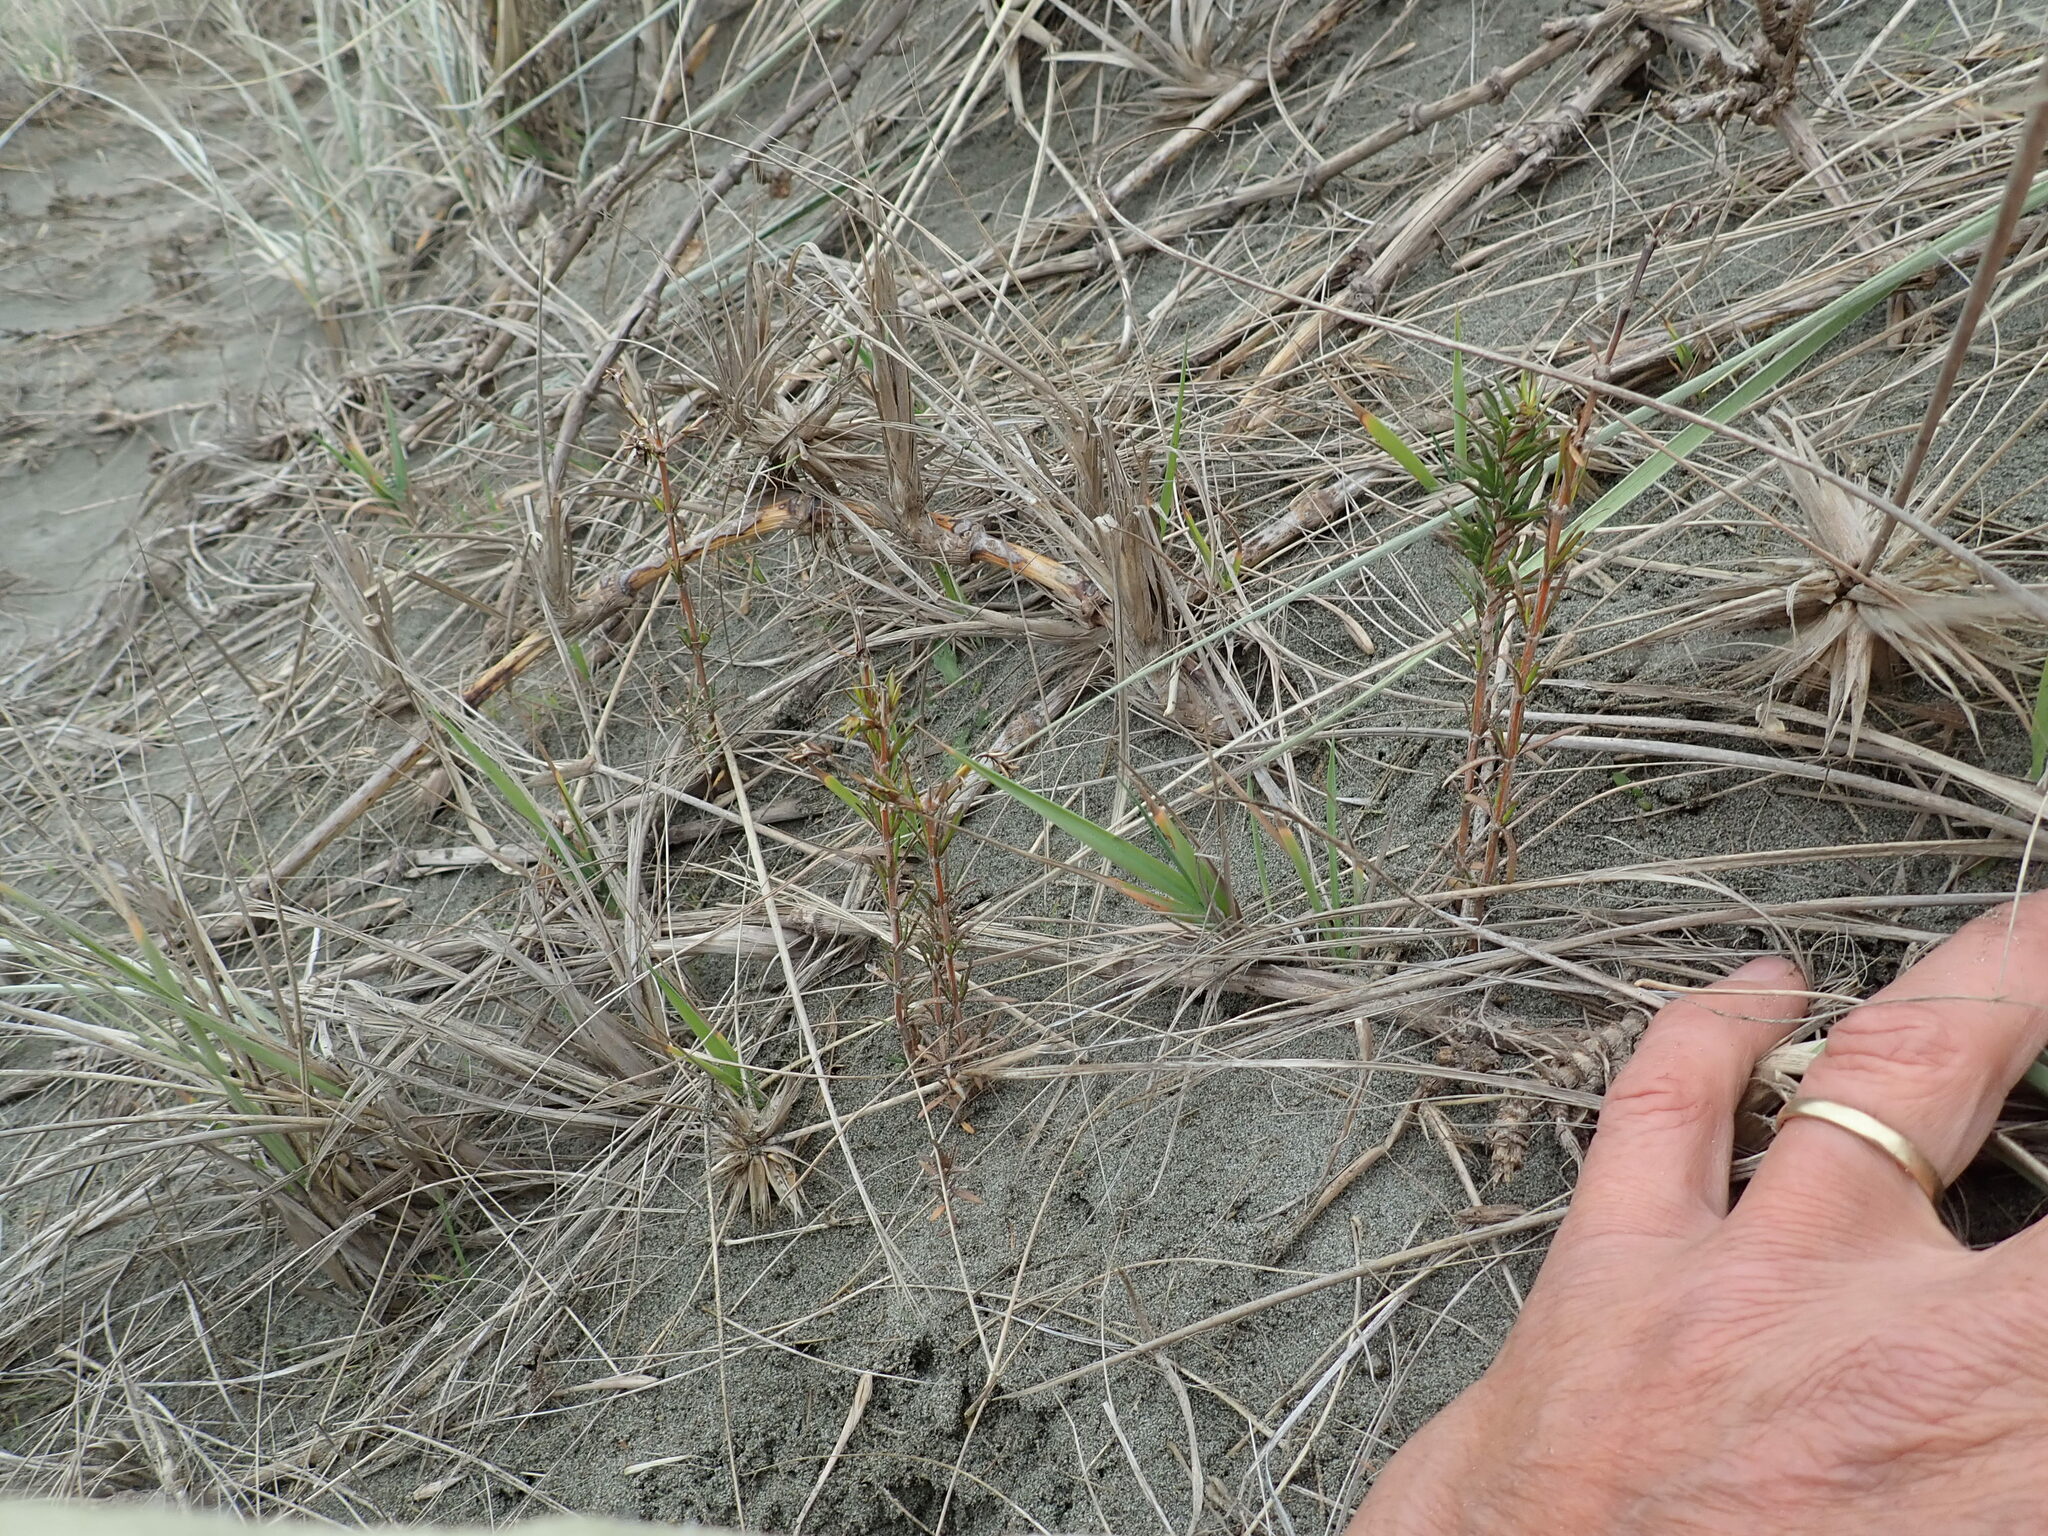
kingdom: Plantae
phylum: Tracheophyta
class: Magnoliopsida
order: Gentianales
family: Rubiaceae
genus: Coprosma
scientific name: Coprosma acerosa
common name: Sand coprosma
